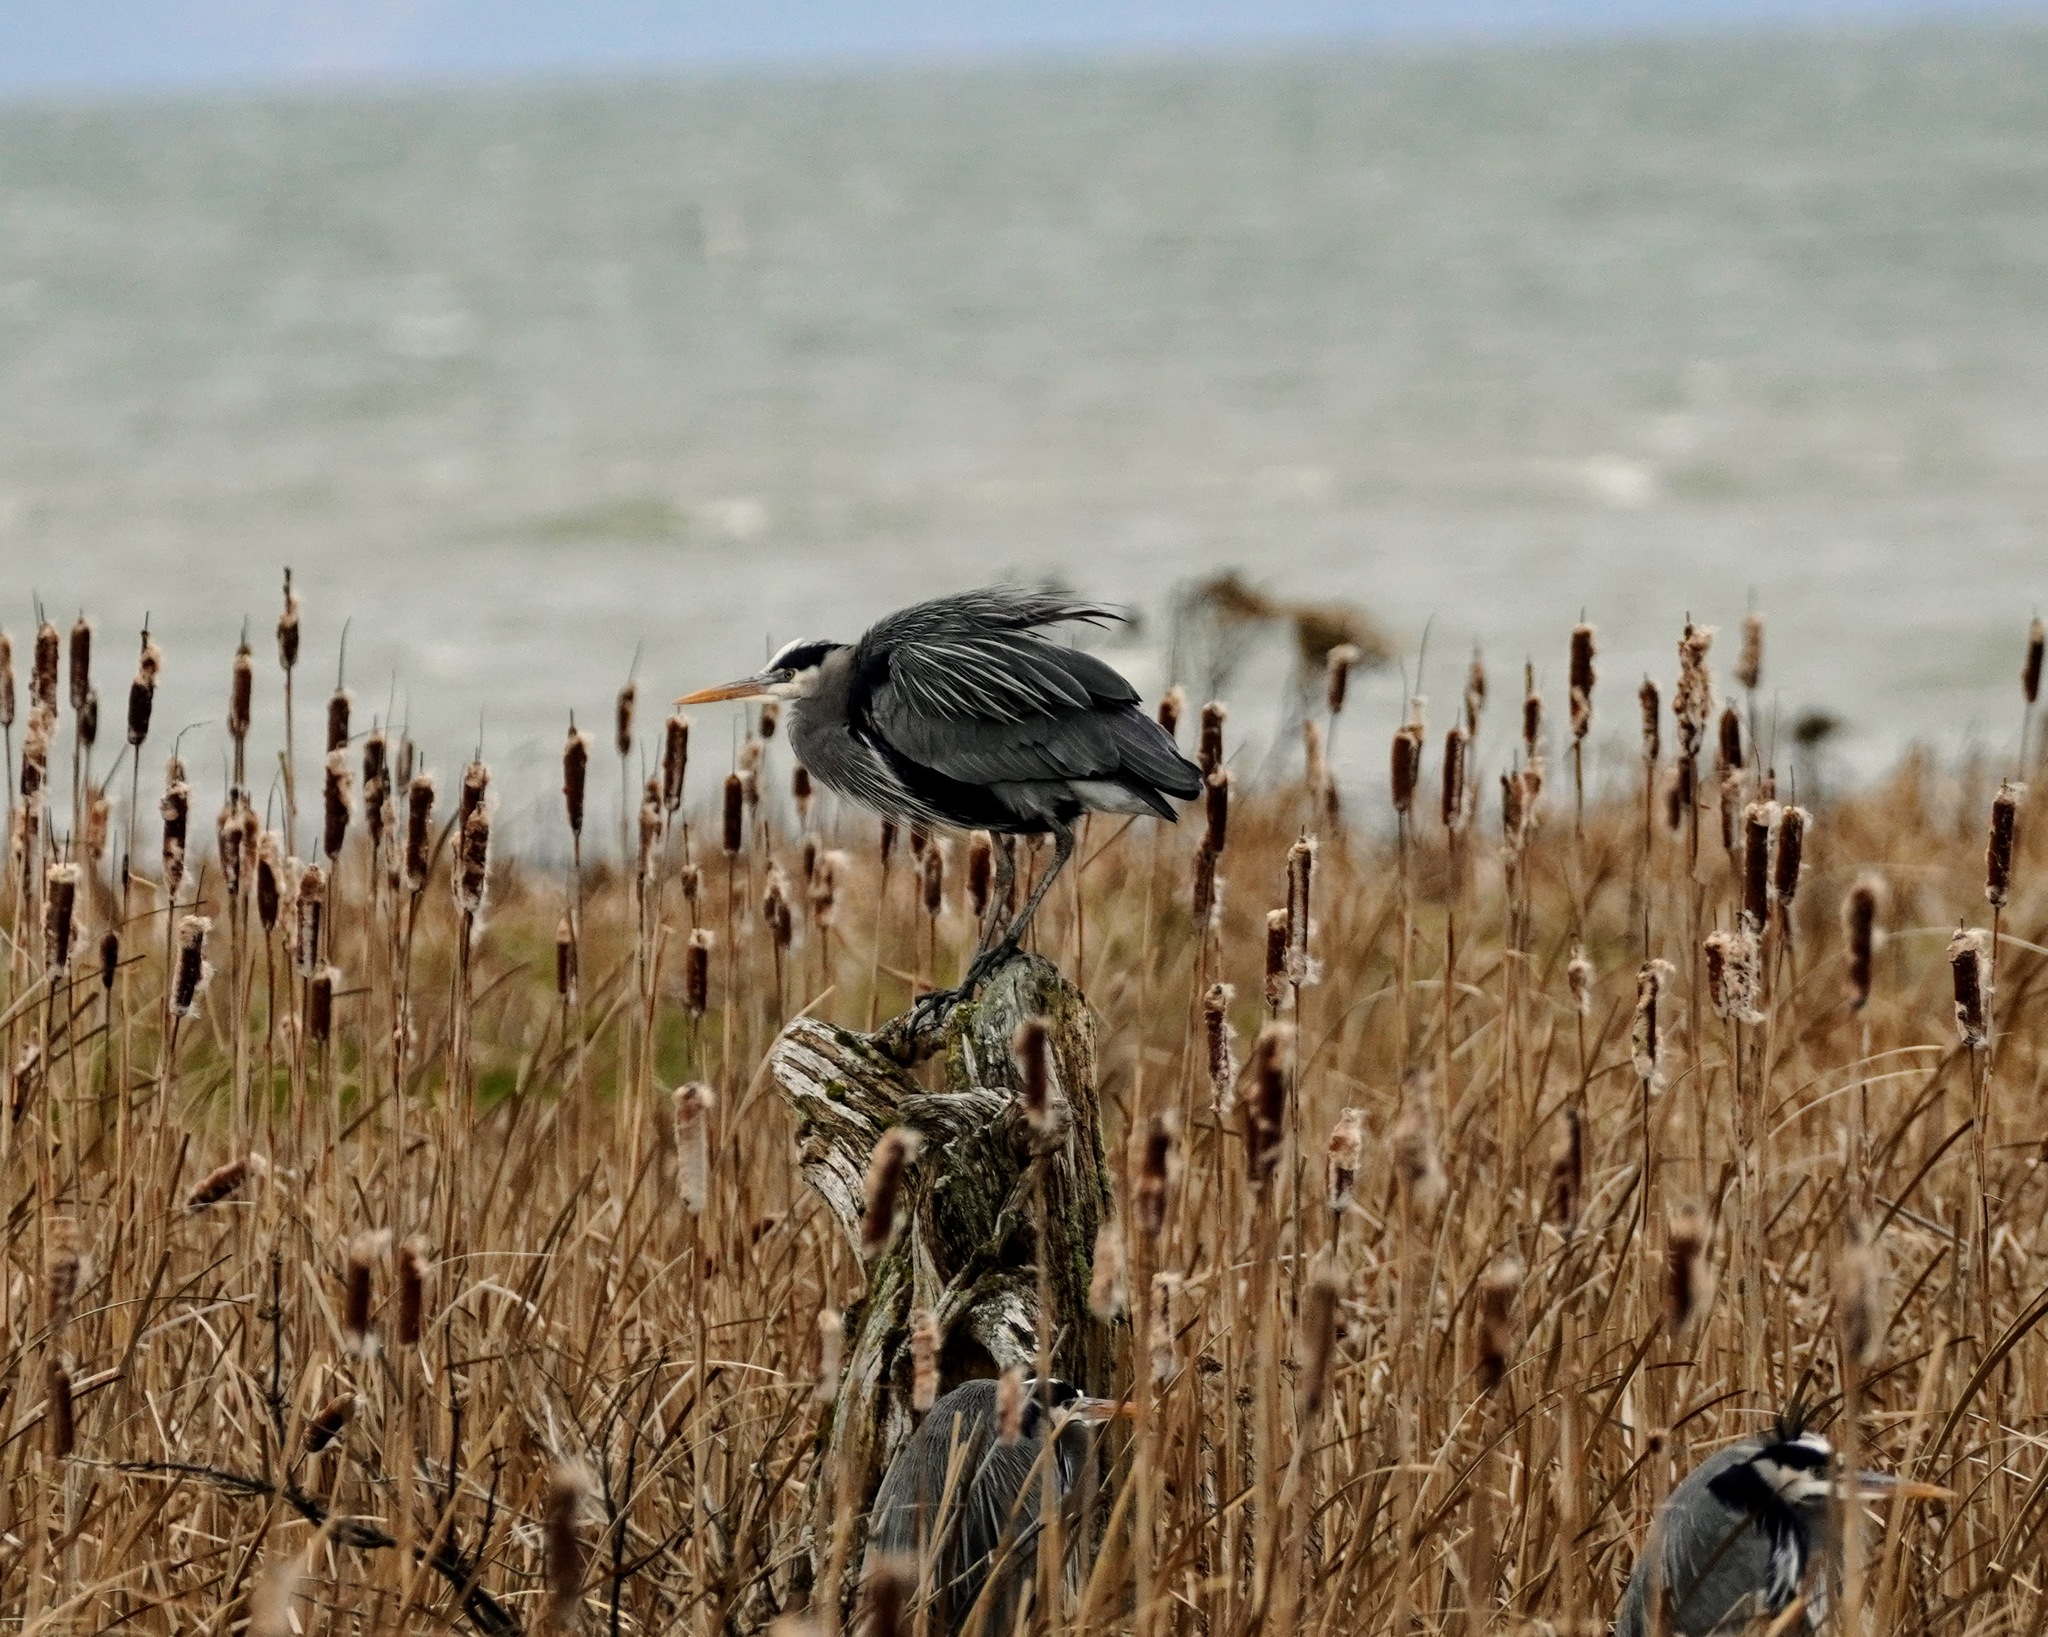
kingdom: Animalia
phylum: Chordata
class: Aves
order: Pelecaniformes
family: Ardeidae
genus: Ardea
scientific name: Ardea herodias
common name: Great blue heron
